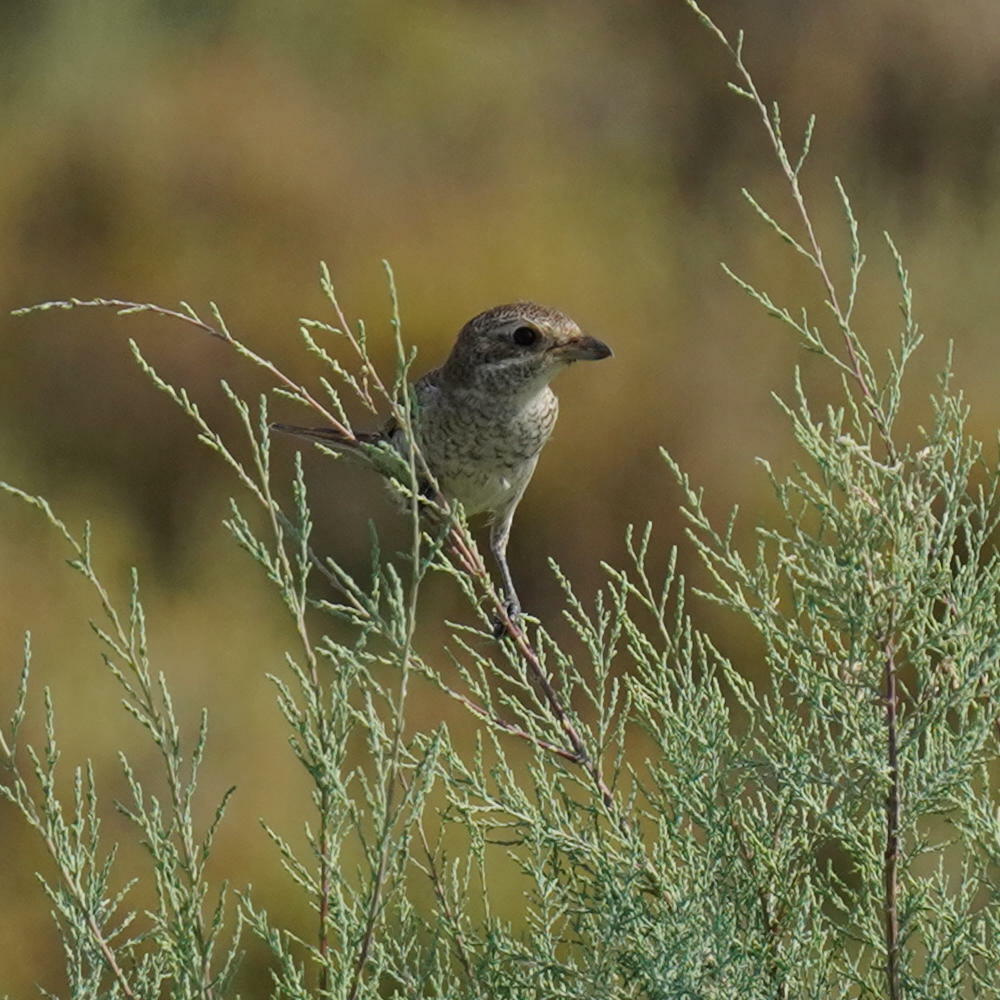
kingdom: Animalia
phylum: Chordata
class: Aves
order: Passeriformes
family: Laniidae
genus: Lanius
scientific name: Lanius collurio
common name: Red-backed shrike
